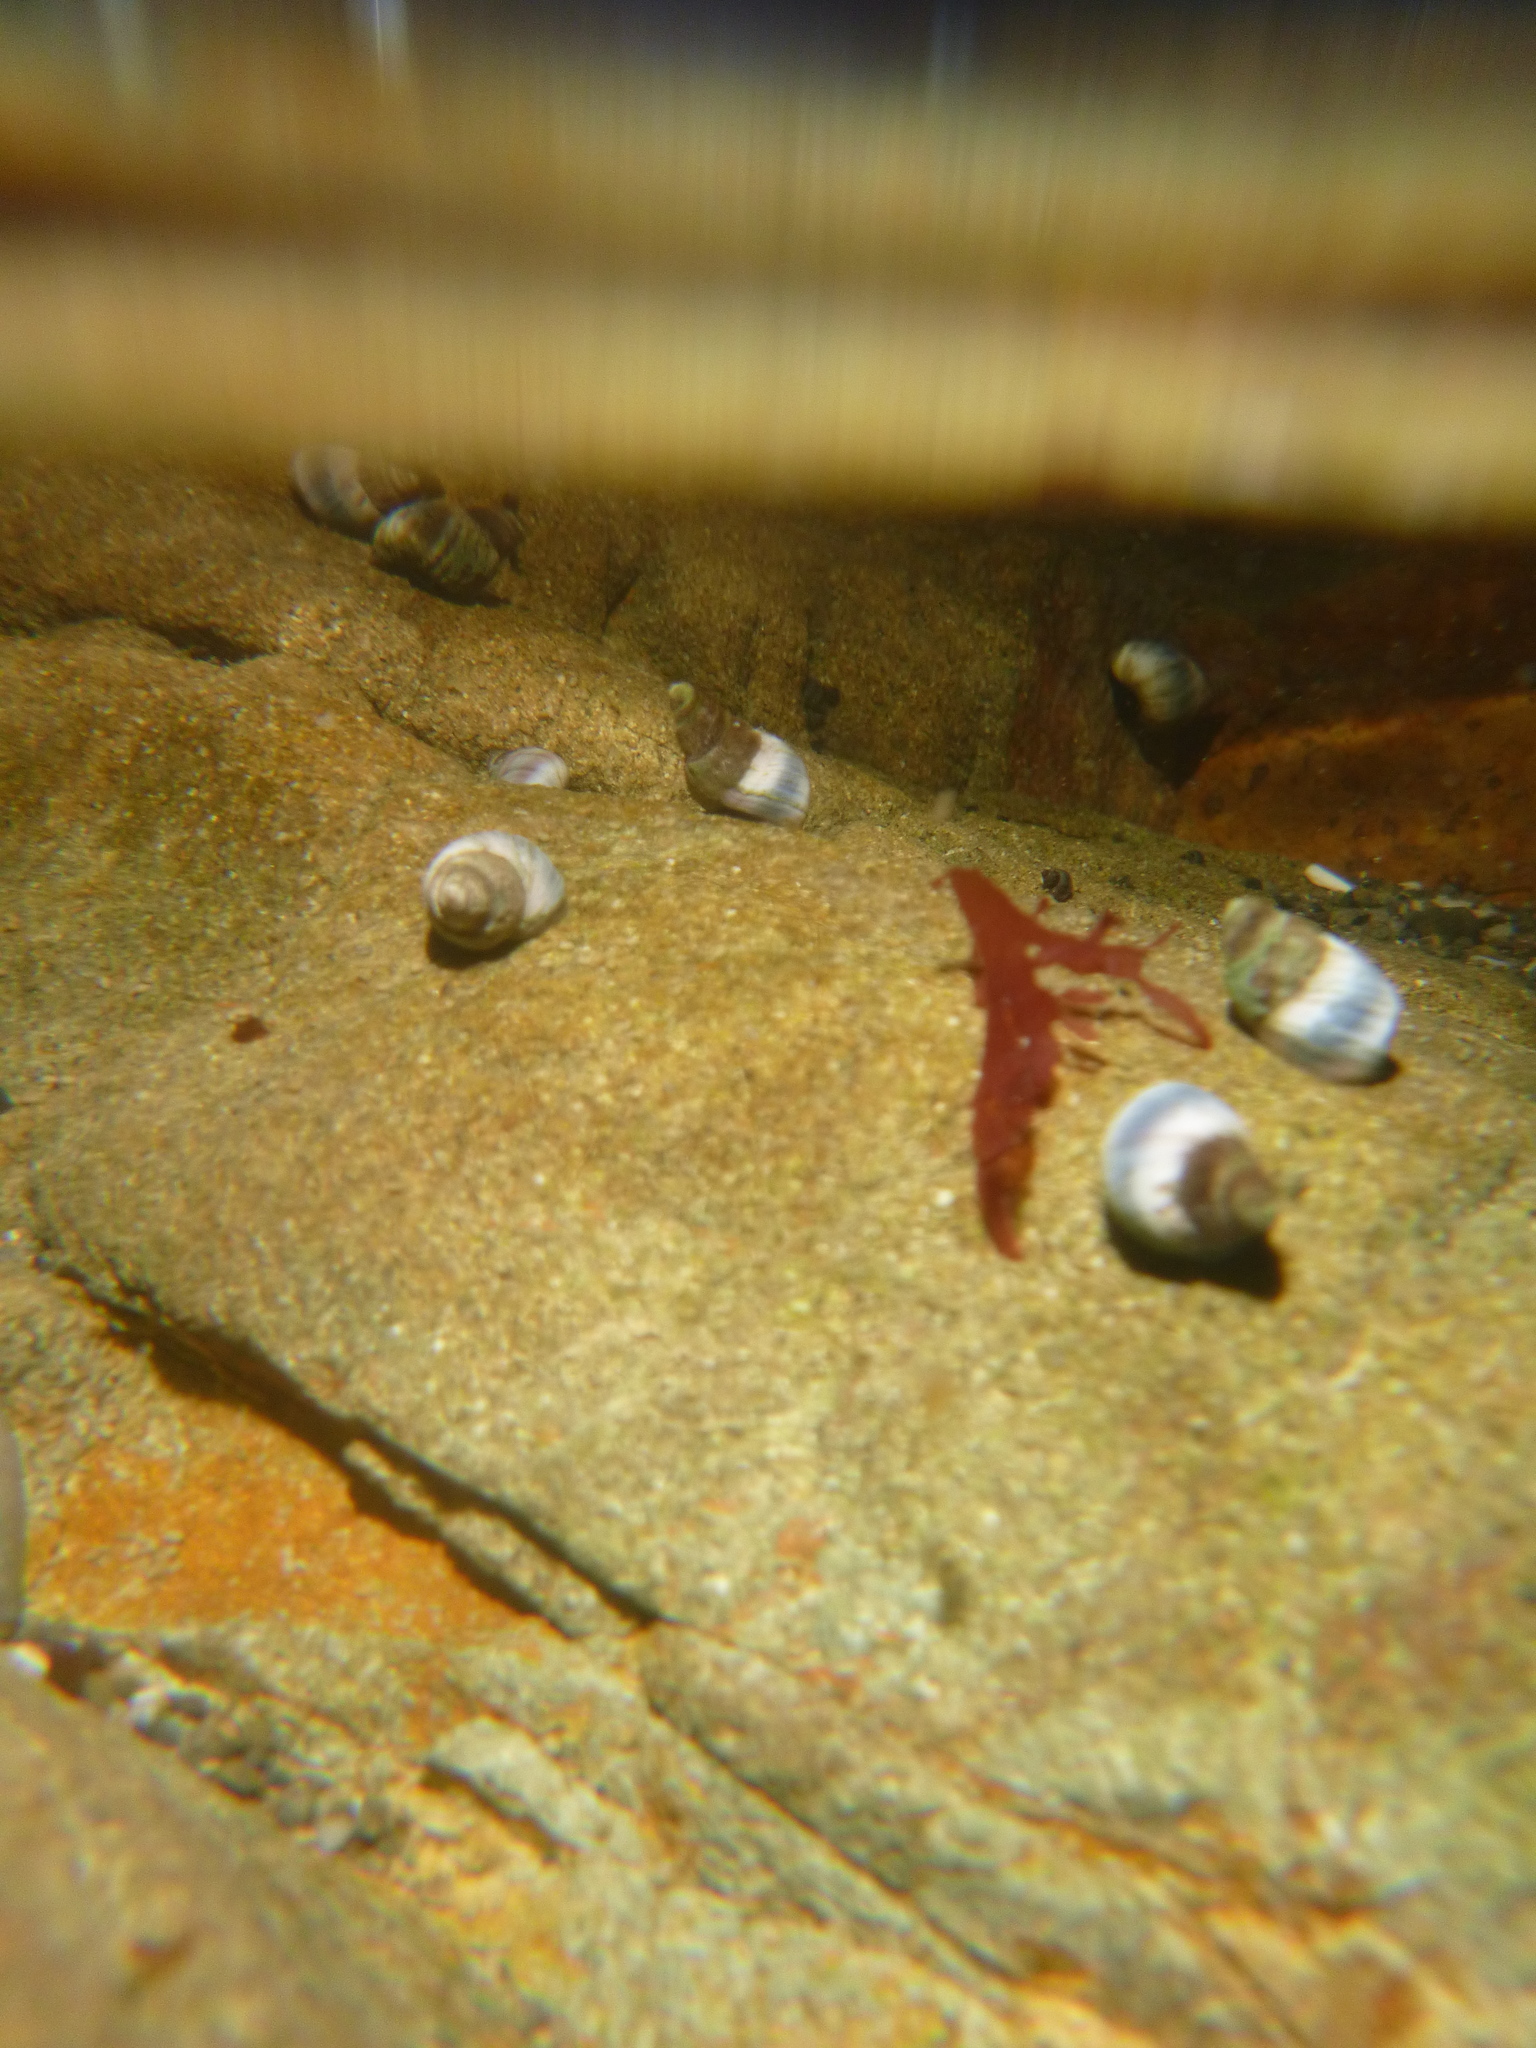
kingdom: Animalia
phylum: Mollusca
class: Gastropoda
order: Littorinimorpha
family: Littorinidae
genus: Austrolittorina
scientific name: Austrolittorina antipodum
